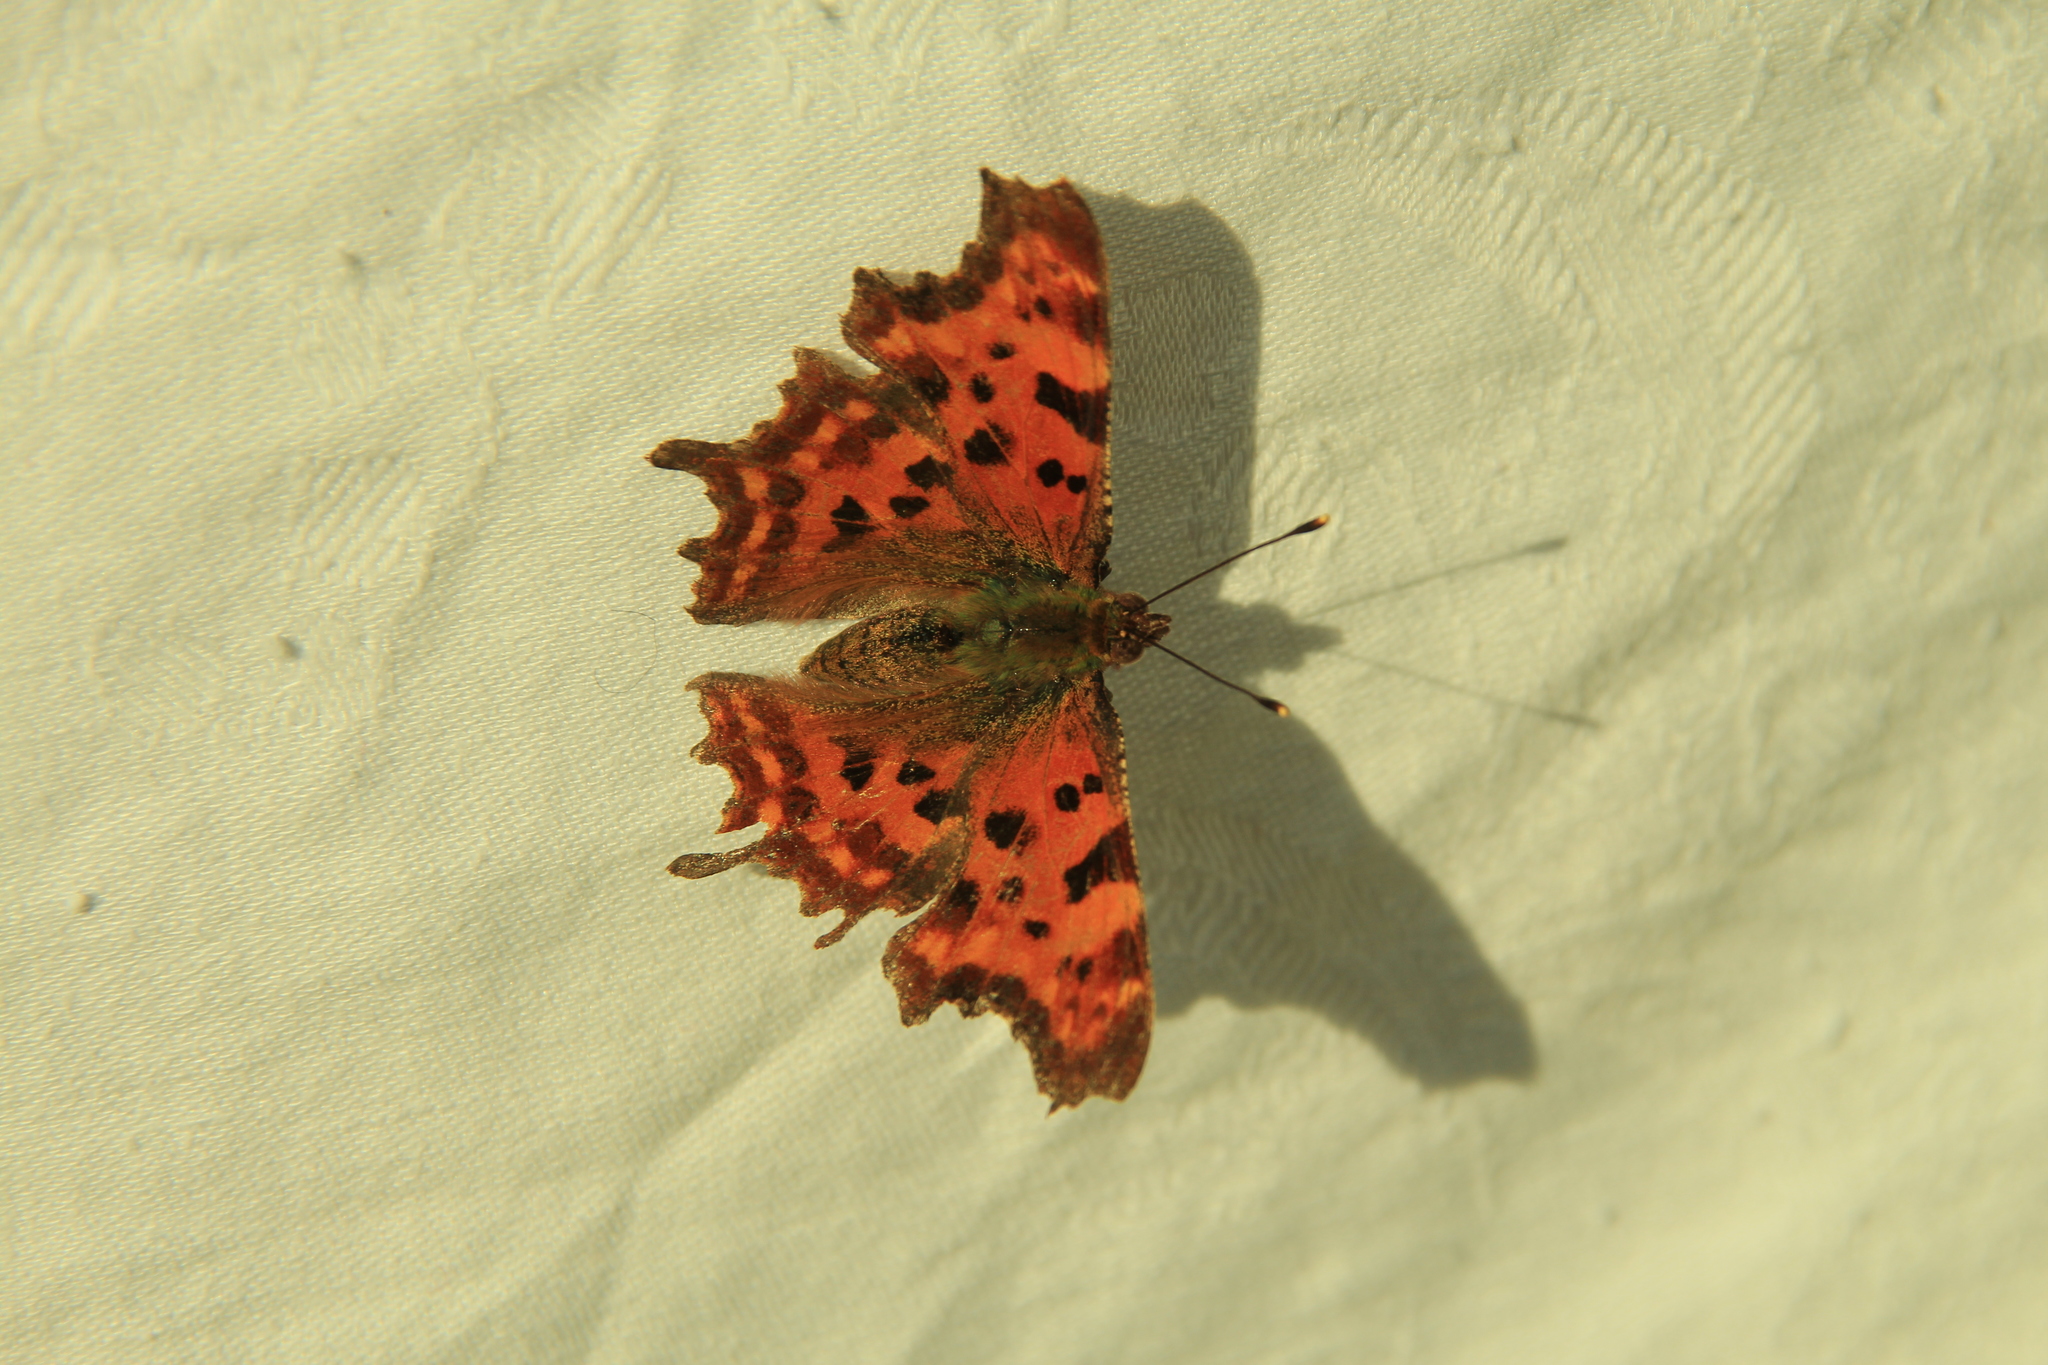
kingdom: Animalia
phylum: Arthropoda
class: Insecta
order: Lepidoptera
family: Nymphalidae
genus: Polygonia
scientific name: Polygonia c-album
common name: Comma
